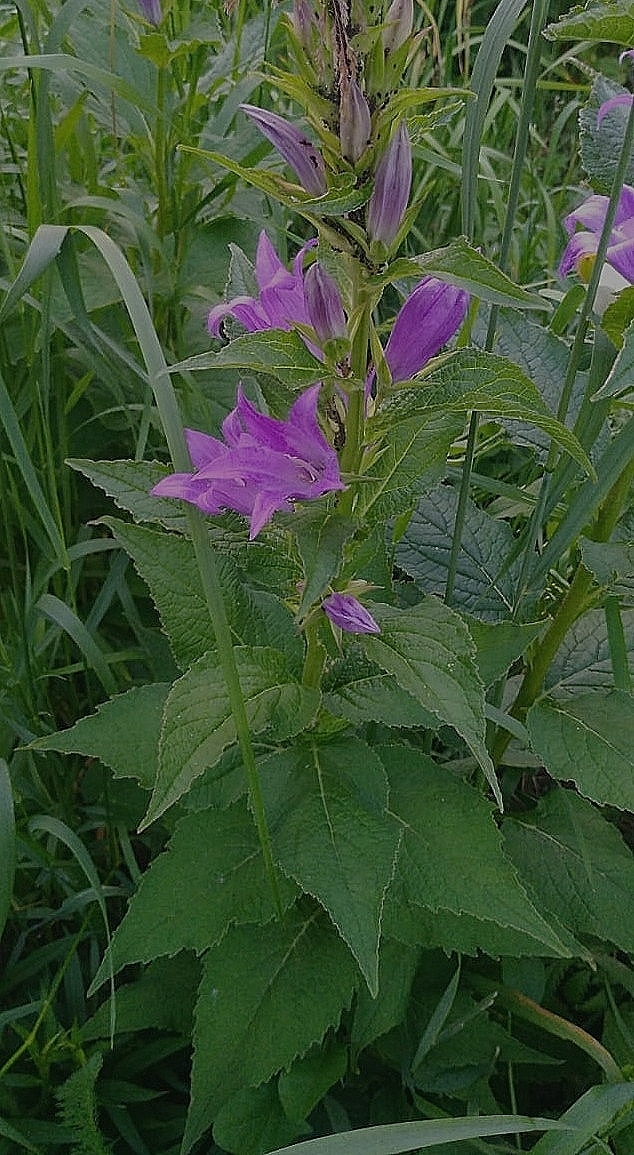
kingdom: Plantae
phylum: Tracheophyta
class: Magnoliopsida
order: Asterales
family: Campanulaceae
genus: Campanula
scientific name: Campanula latifolia
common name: Giant bellflower
